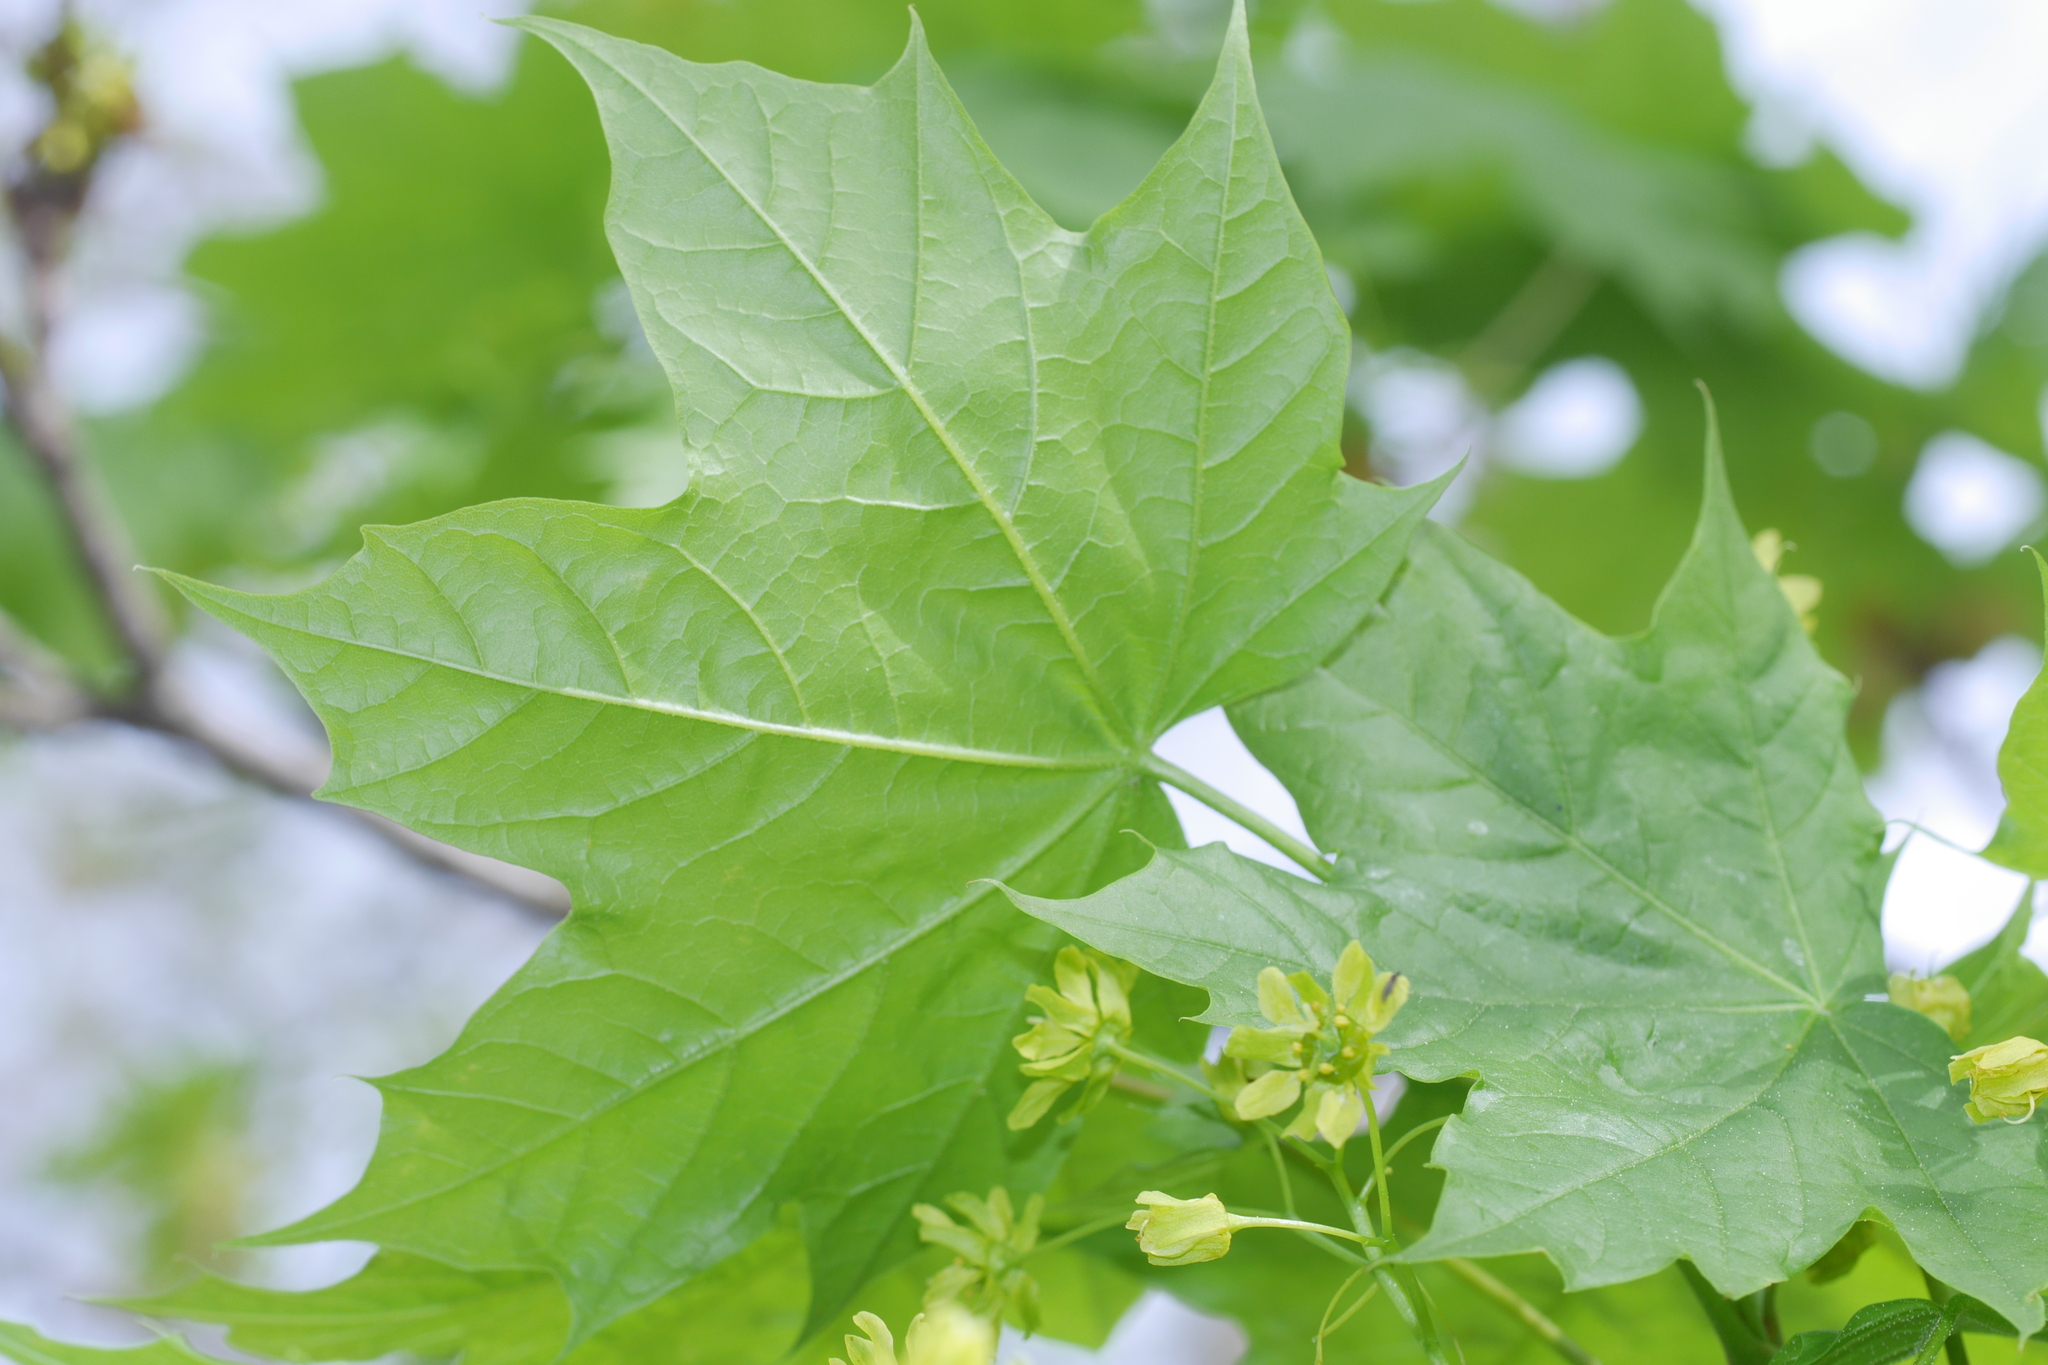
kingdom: Plantae
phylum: Tracheophyta
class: Magnoliopsida
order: Sapindales
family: Sapindaceae
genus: Acer
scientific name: Acer platanoides
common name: Norway maple
